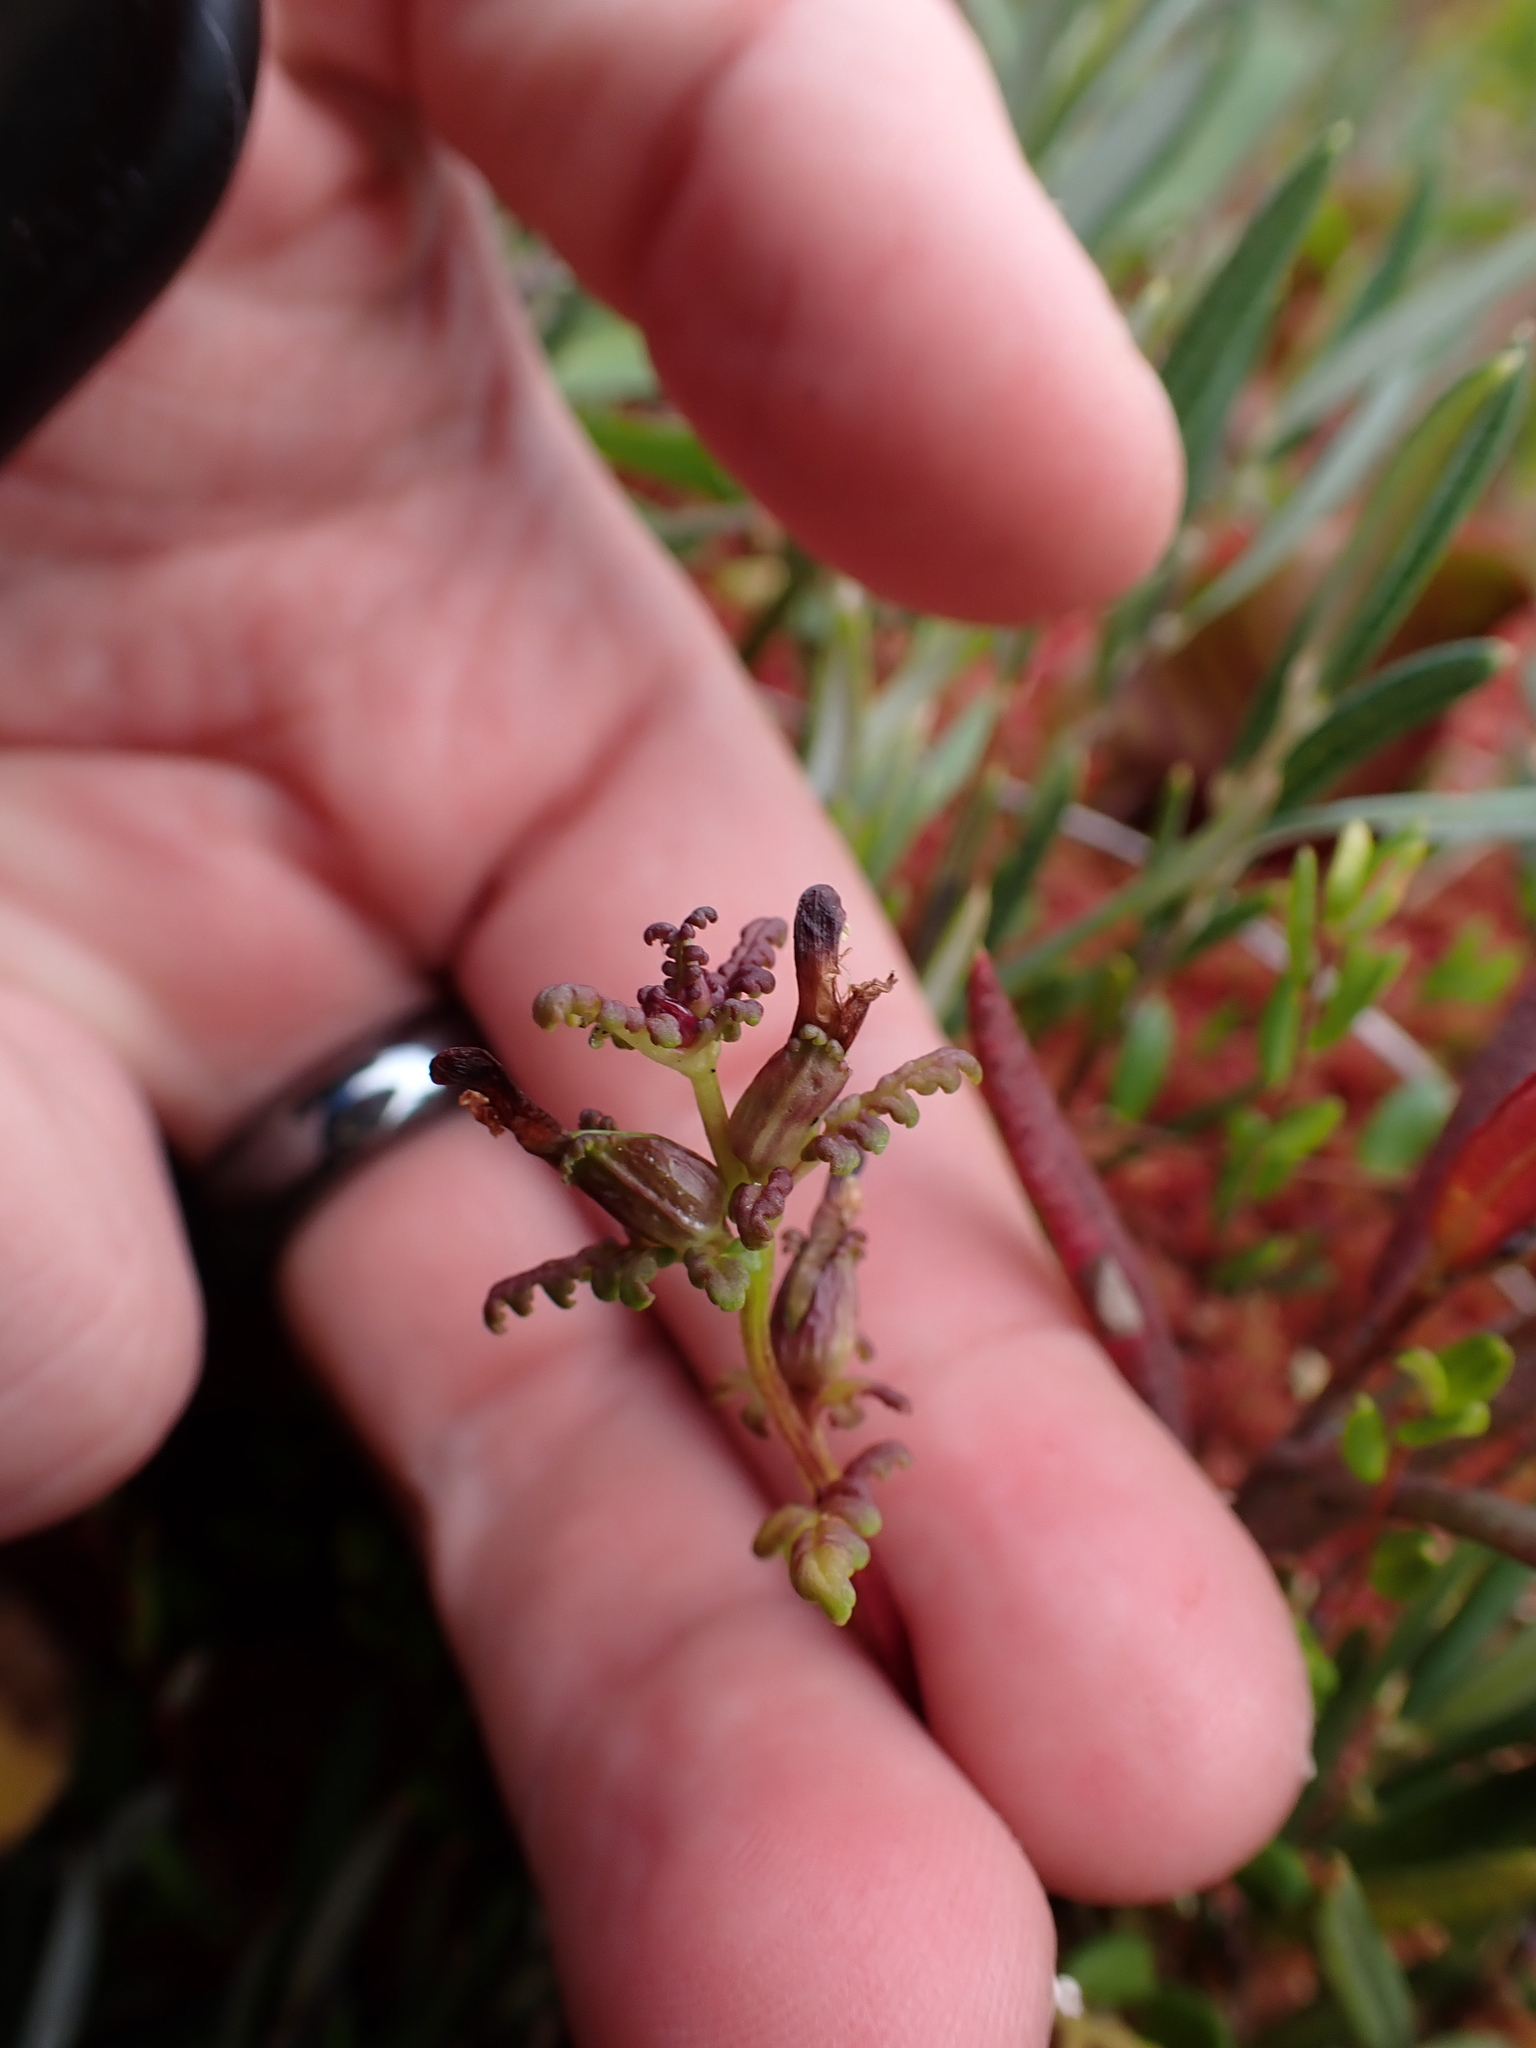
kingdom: Plantae
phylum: Tracheophyta
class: Magnoliopsida
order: Lamiales
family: Orobanchaceae
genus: Pedicularis
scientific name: Pedicularis parviflora
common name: Muskeg lousewort
